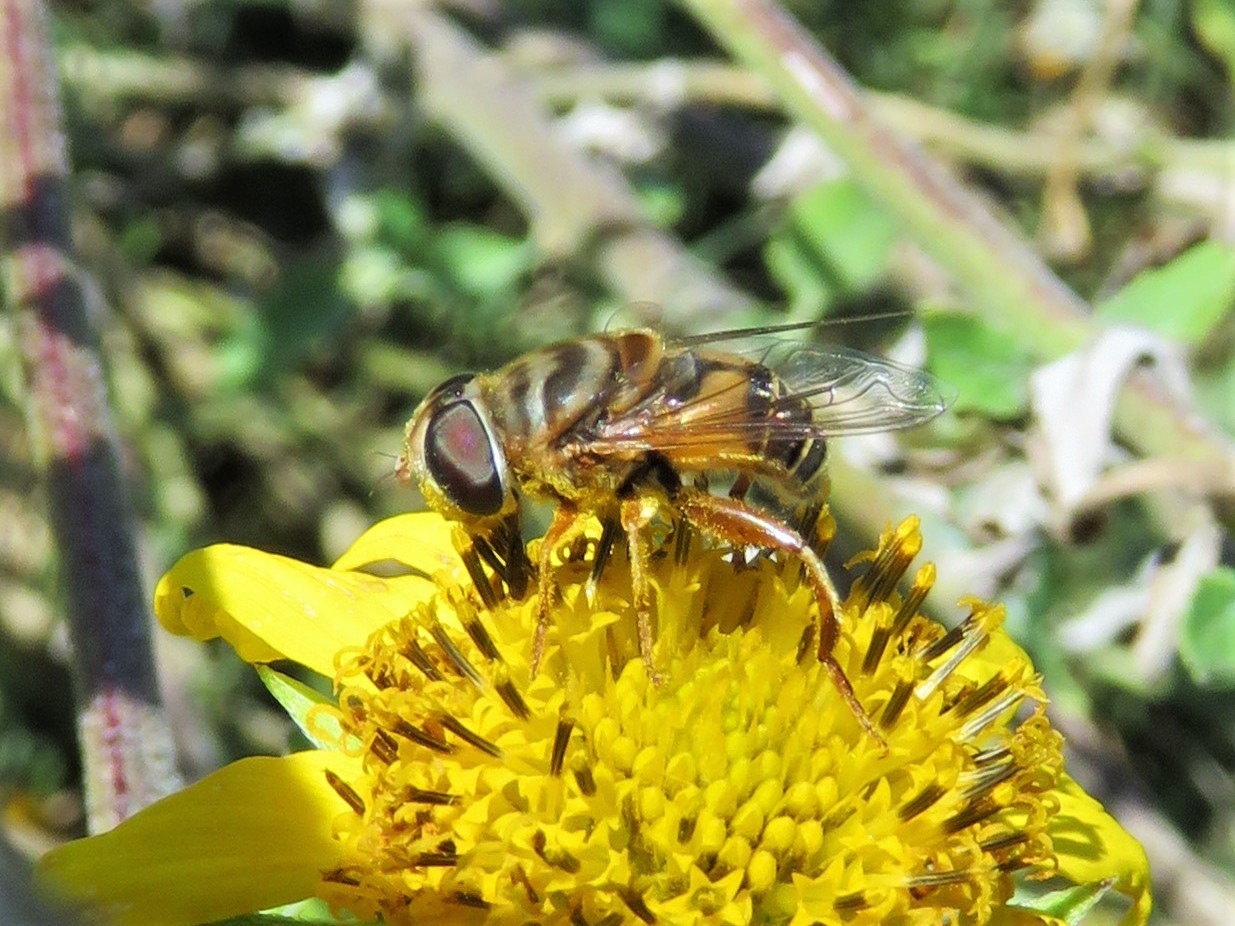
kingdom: Animalia
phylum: Arthropoda
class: Insecta
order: Diptera
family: Syrphidae
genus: Palpada
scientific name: Palpada vinetorum
